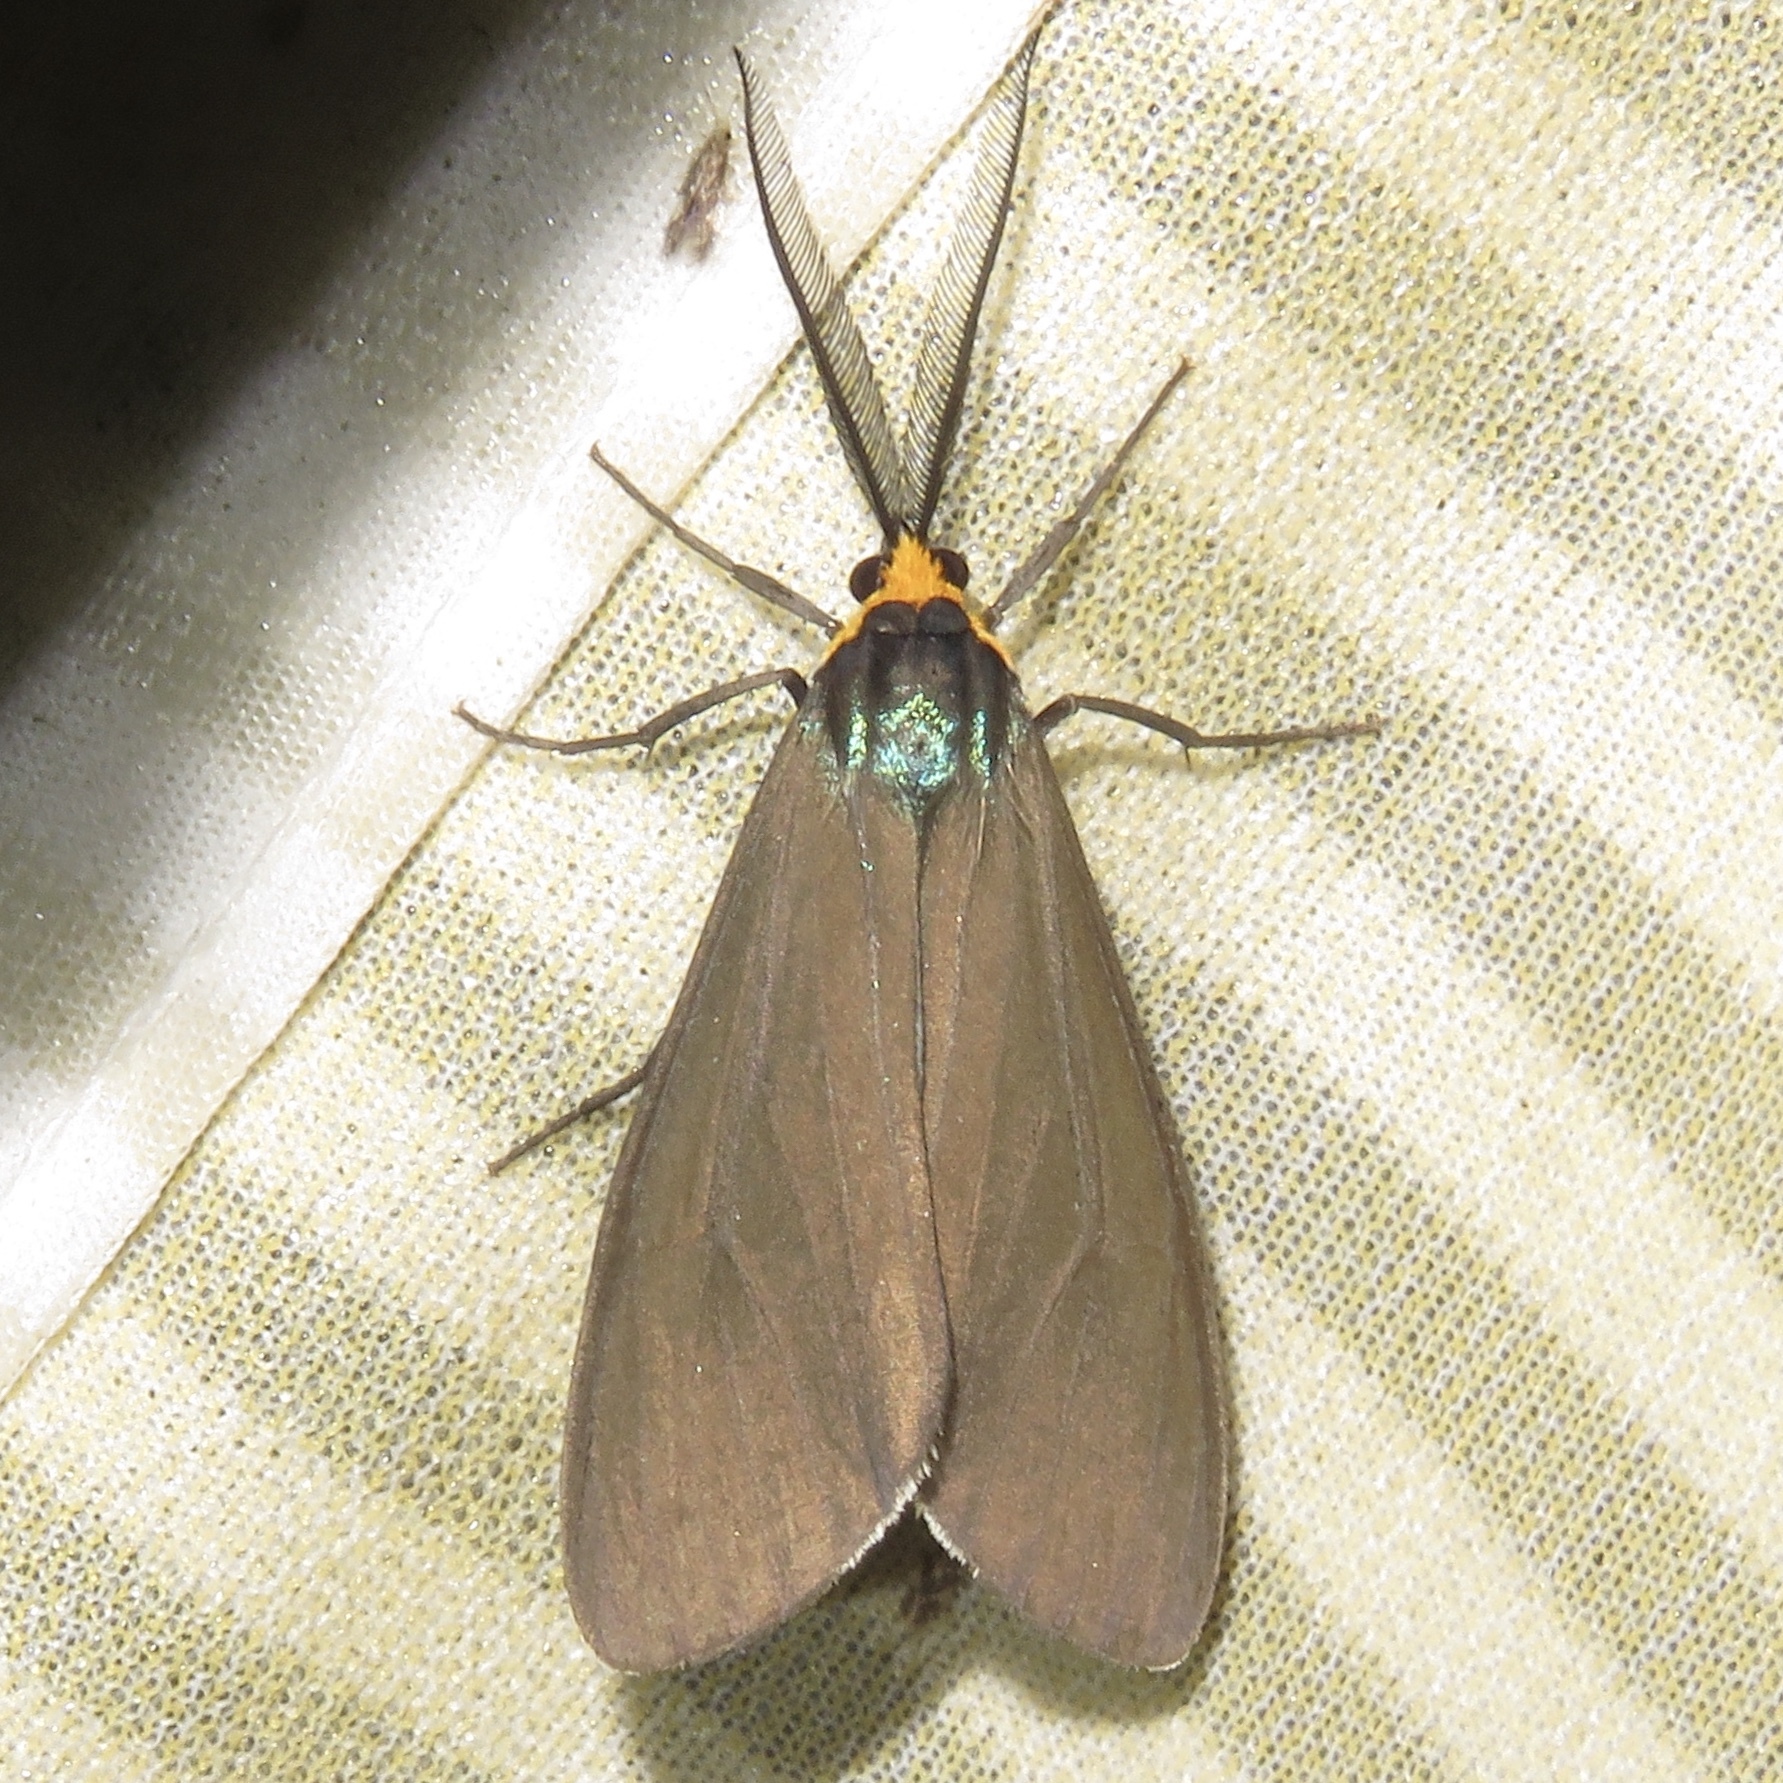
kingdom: Animalia
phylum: Arthropoda
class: Insecta
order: Lepidoptera
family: Erebidae
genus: Ctenucha
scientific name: Ctenucha virginica
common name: Virginia ctenucha moth
